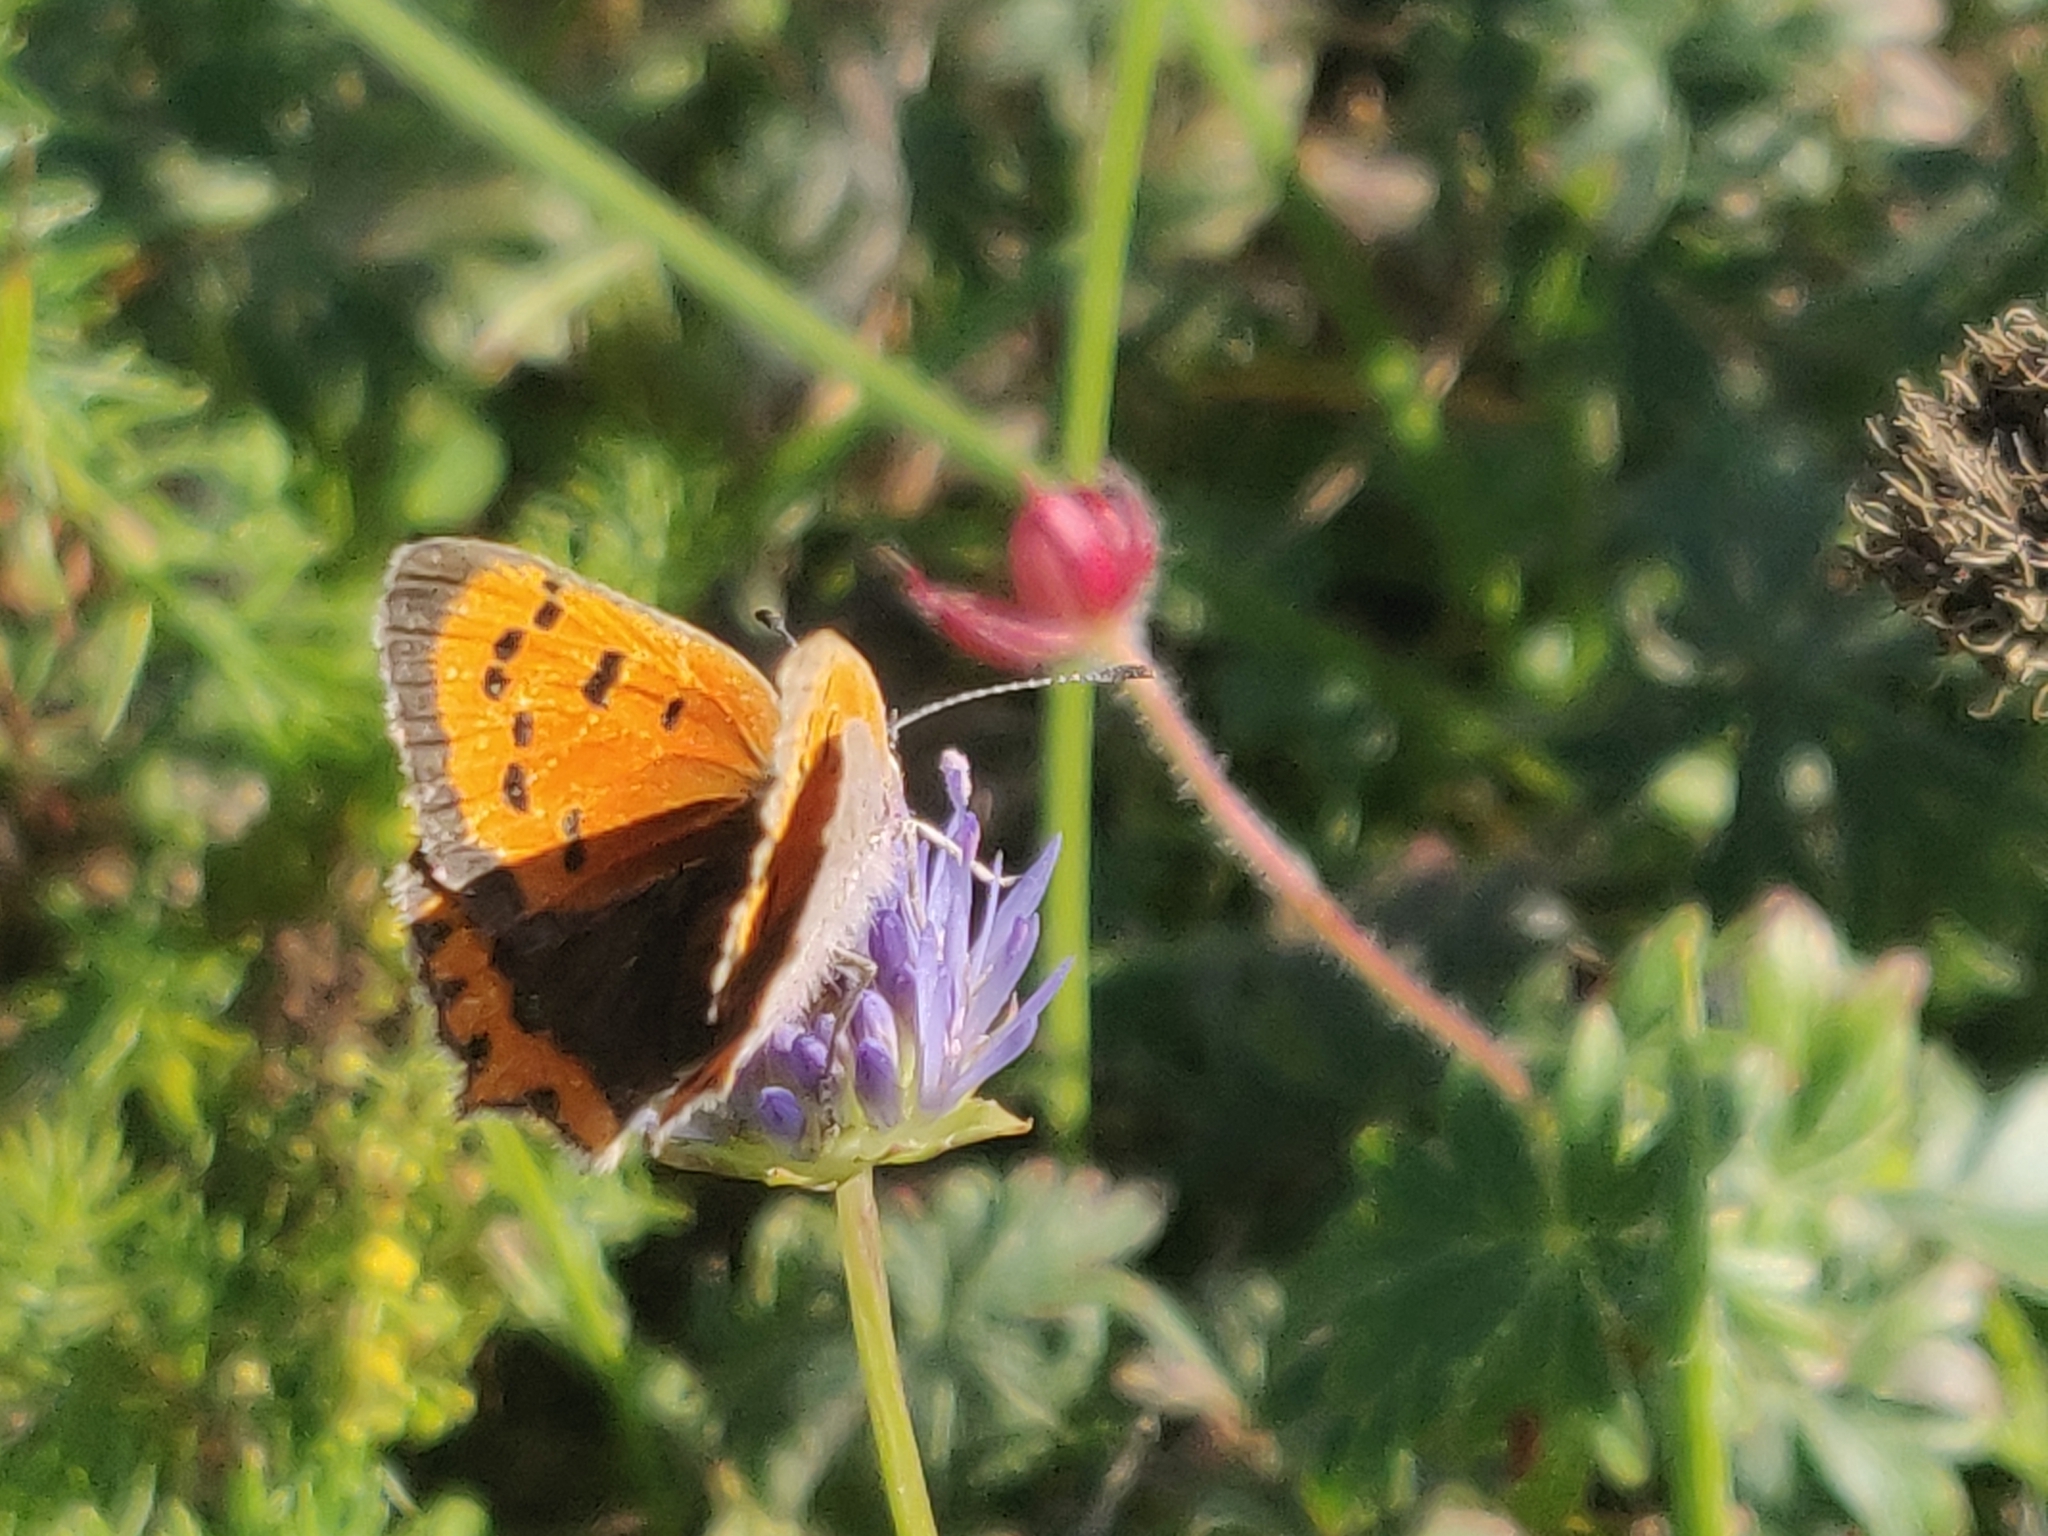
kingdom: Animalia
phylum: Arthropoda
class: Insecta
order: Lepidoptera
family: Lycaenidae
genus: Lycaena
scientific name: Lycaena phlaeas
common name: Small copper
